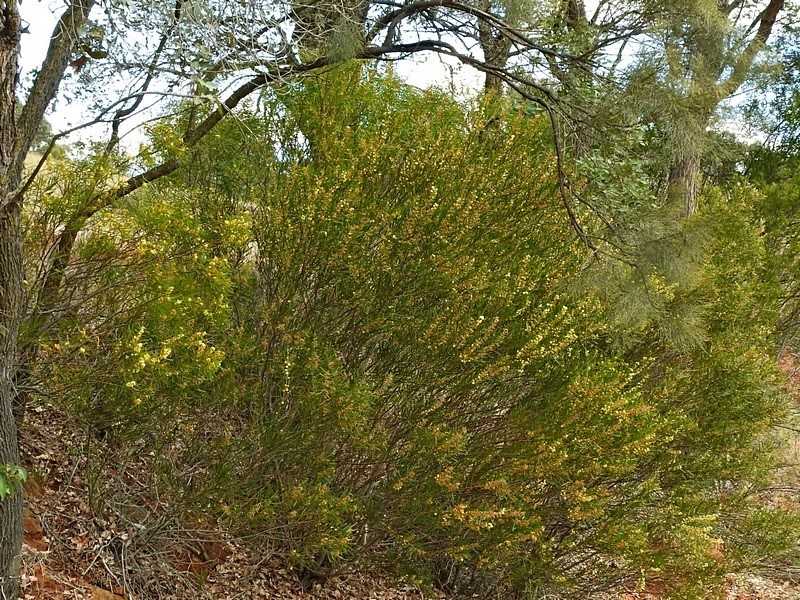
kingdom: Plantae
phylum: Tracheophyta
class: Magnoliopsida
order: Fabales
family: Fabaceae
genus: Acacia
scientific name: Acacia elongata
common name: Swamp wattle
